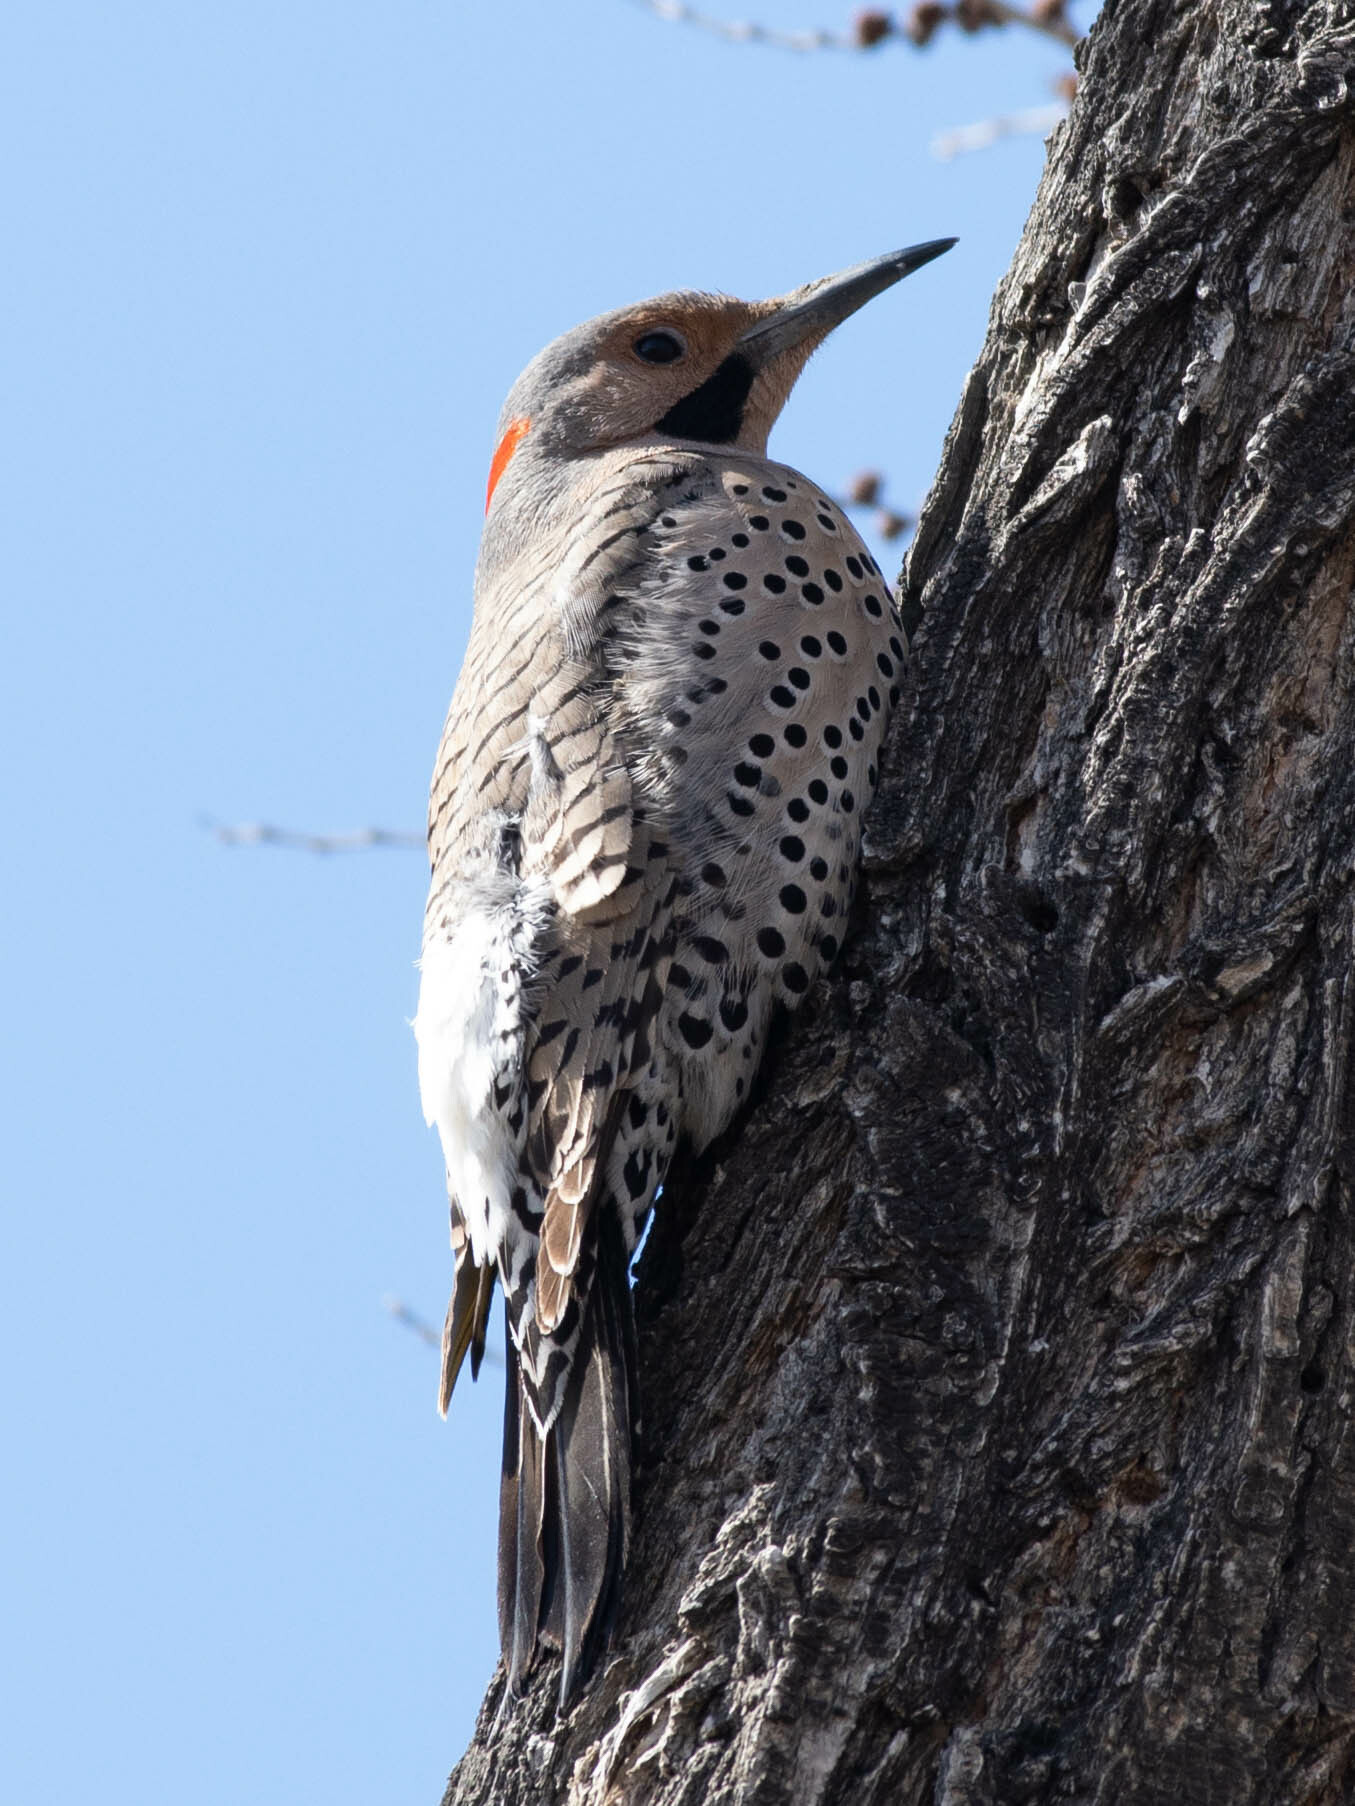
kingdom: Animalia
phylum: Chordata
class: Aves
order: Piciformes
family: Picidae
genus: Colaptes
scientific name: Colaptes auratus
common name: Northern flicker
